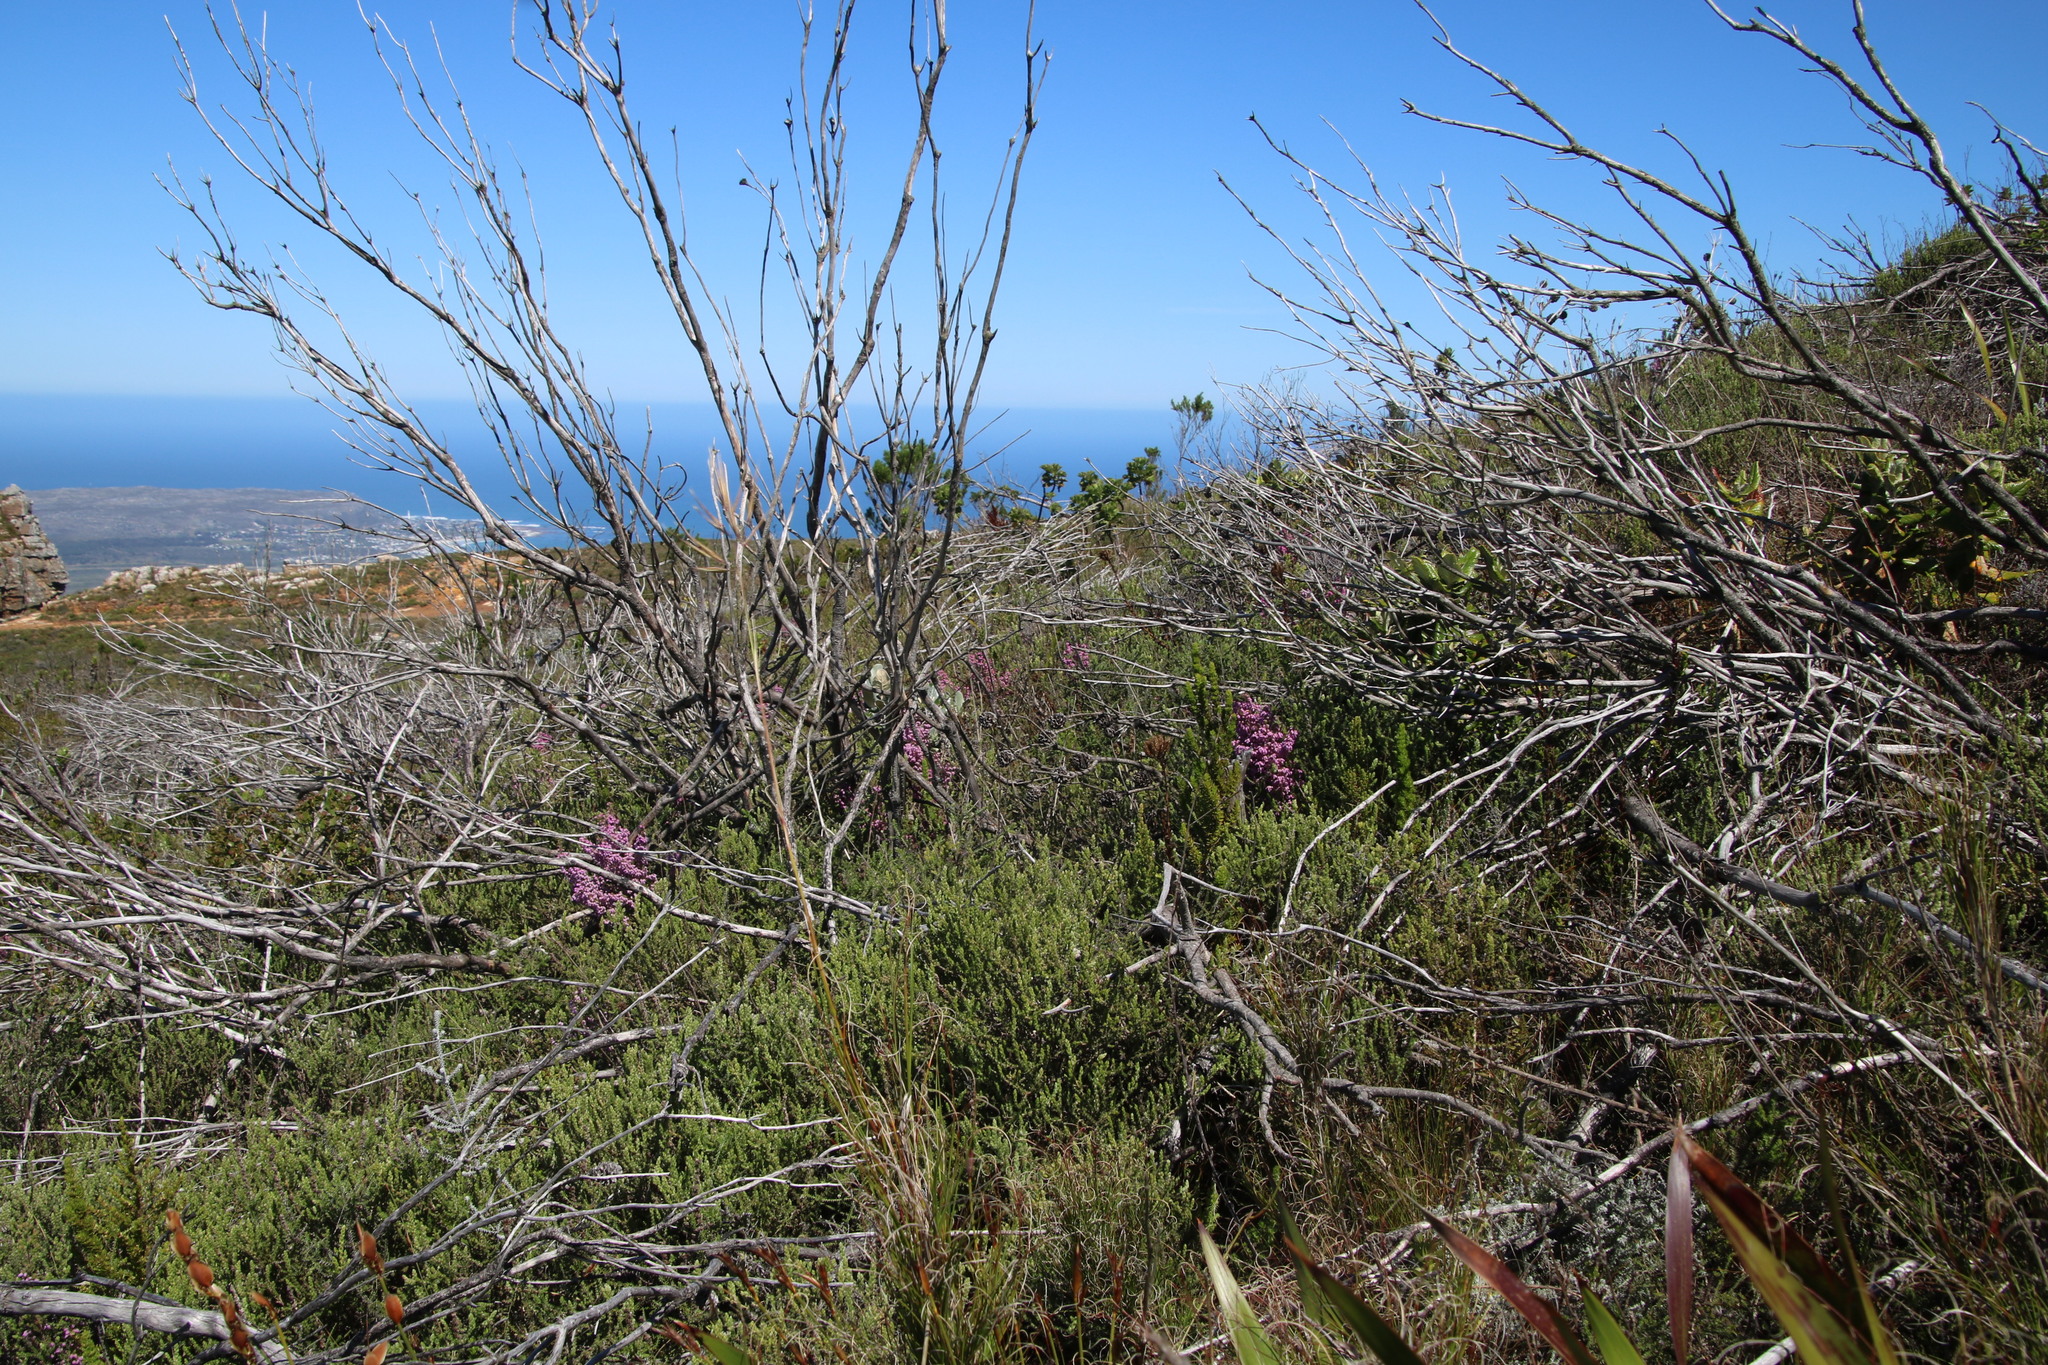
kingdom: Plantae
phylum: Tracheophyta
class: Magnoliopsida
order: Ericales
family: Ericaceae
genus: Erica
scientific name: Erica hirtiflora
